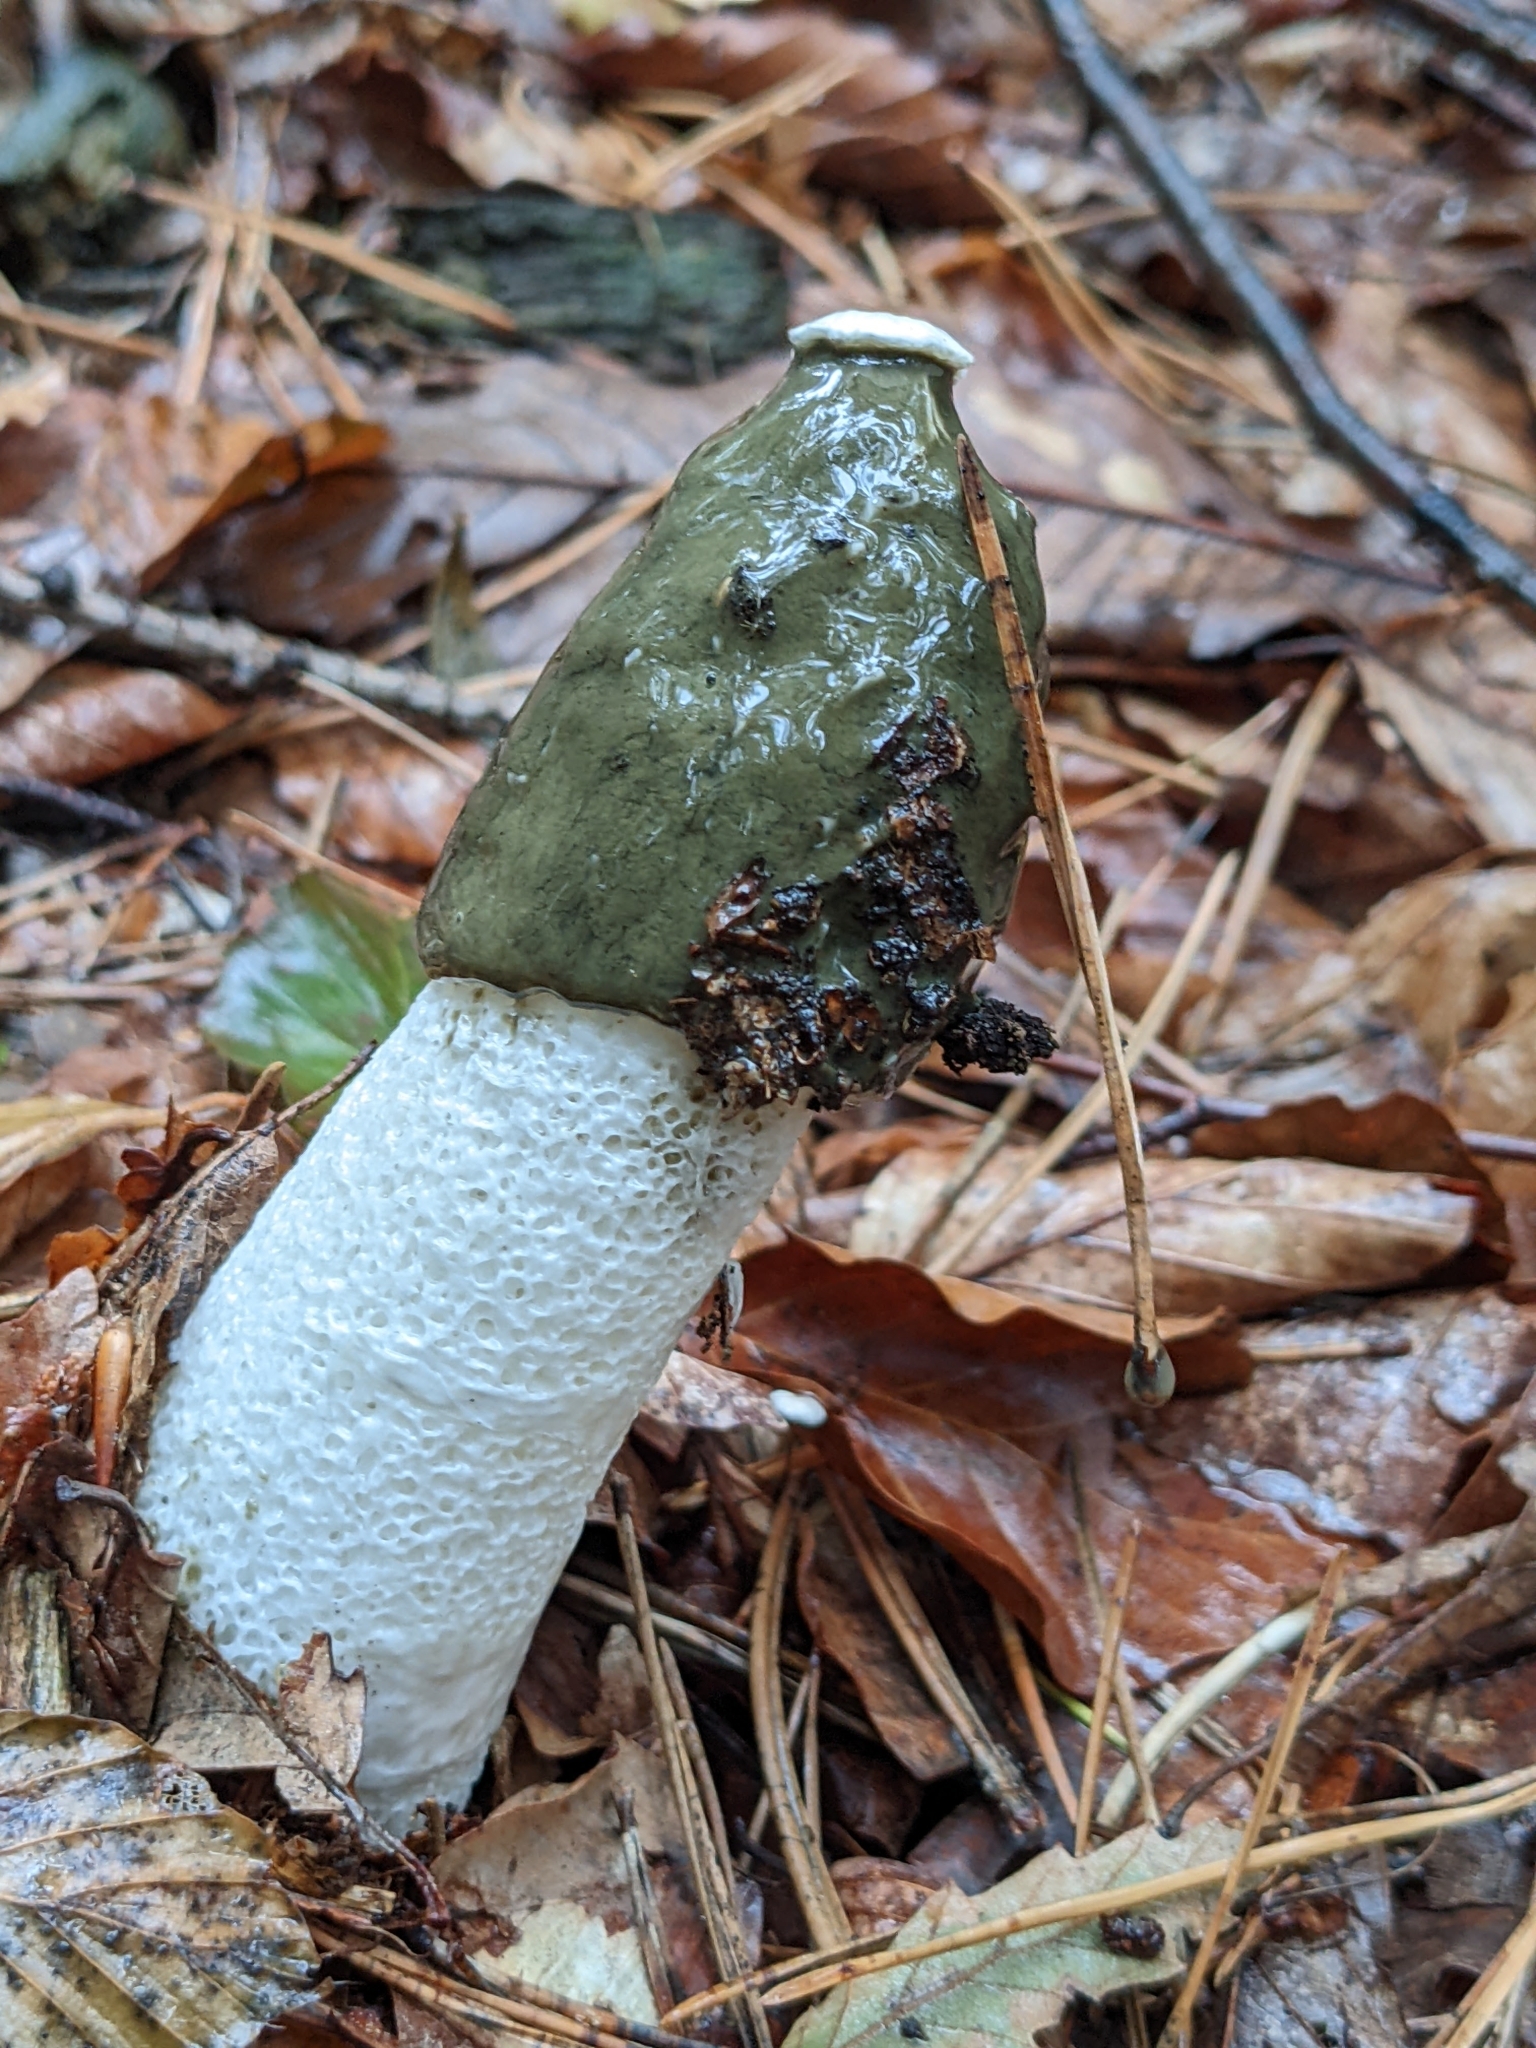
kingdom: Fungi
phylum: Basidiomycota
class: Agaricomycetes
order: Phallales
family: Phallaceae
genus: Phallus
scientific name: Phallus impudicus
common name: Common stinkhorn
